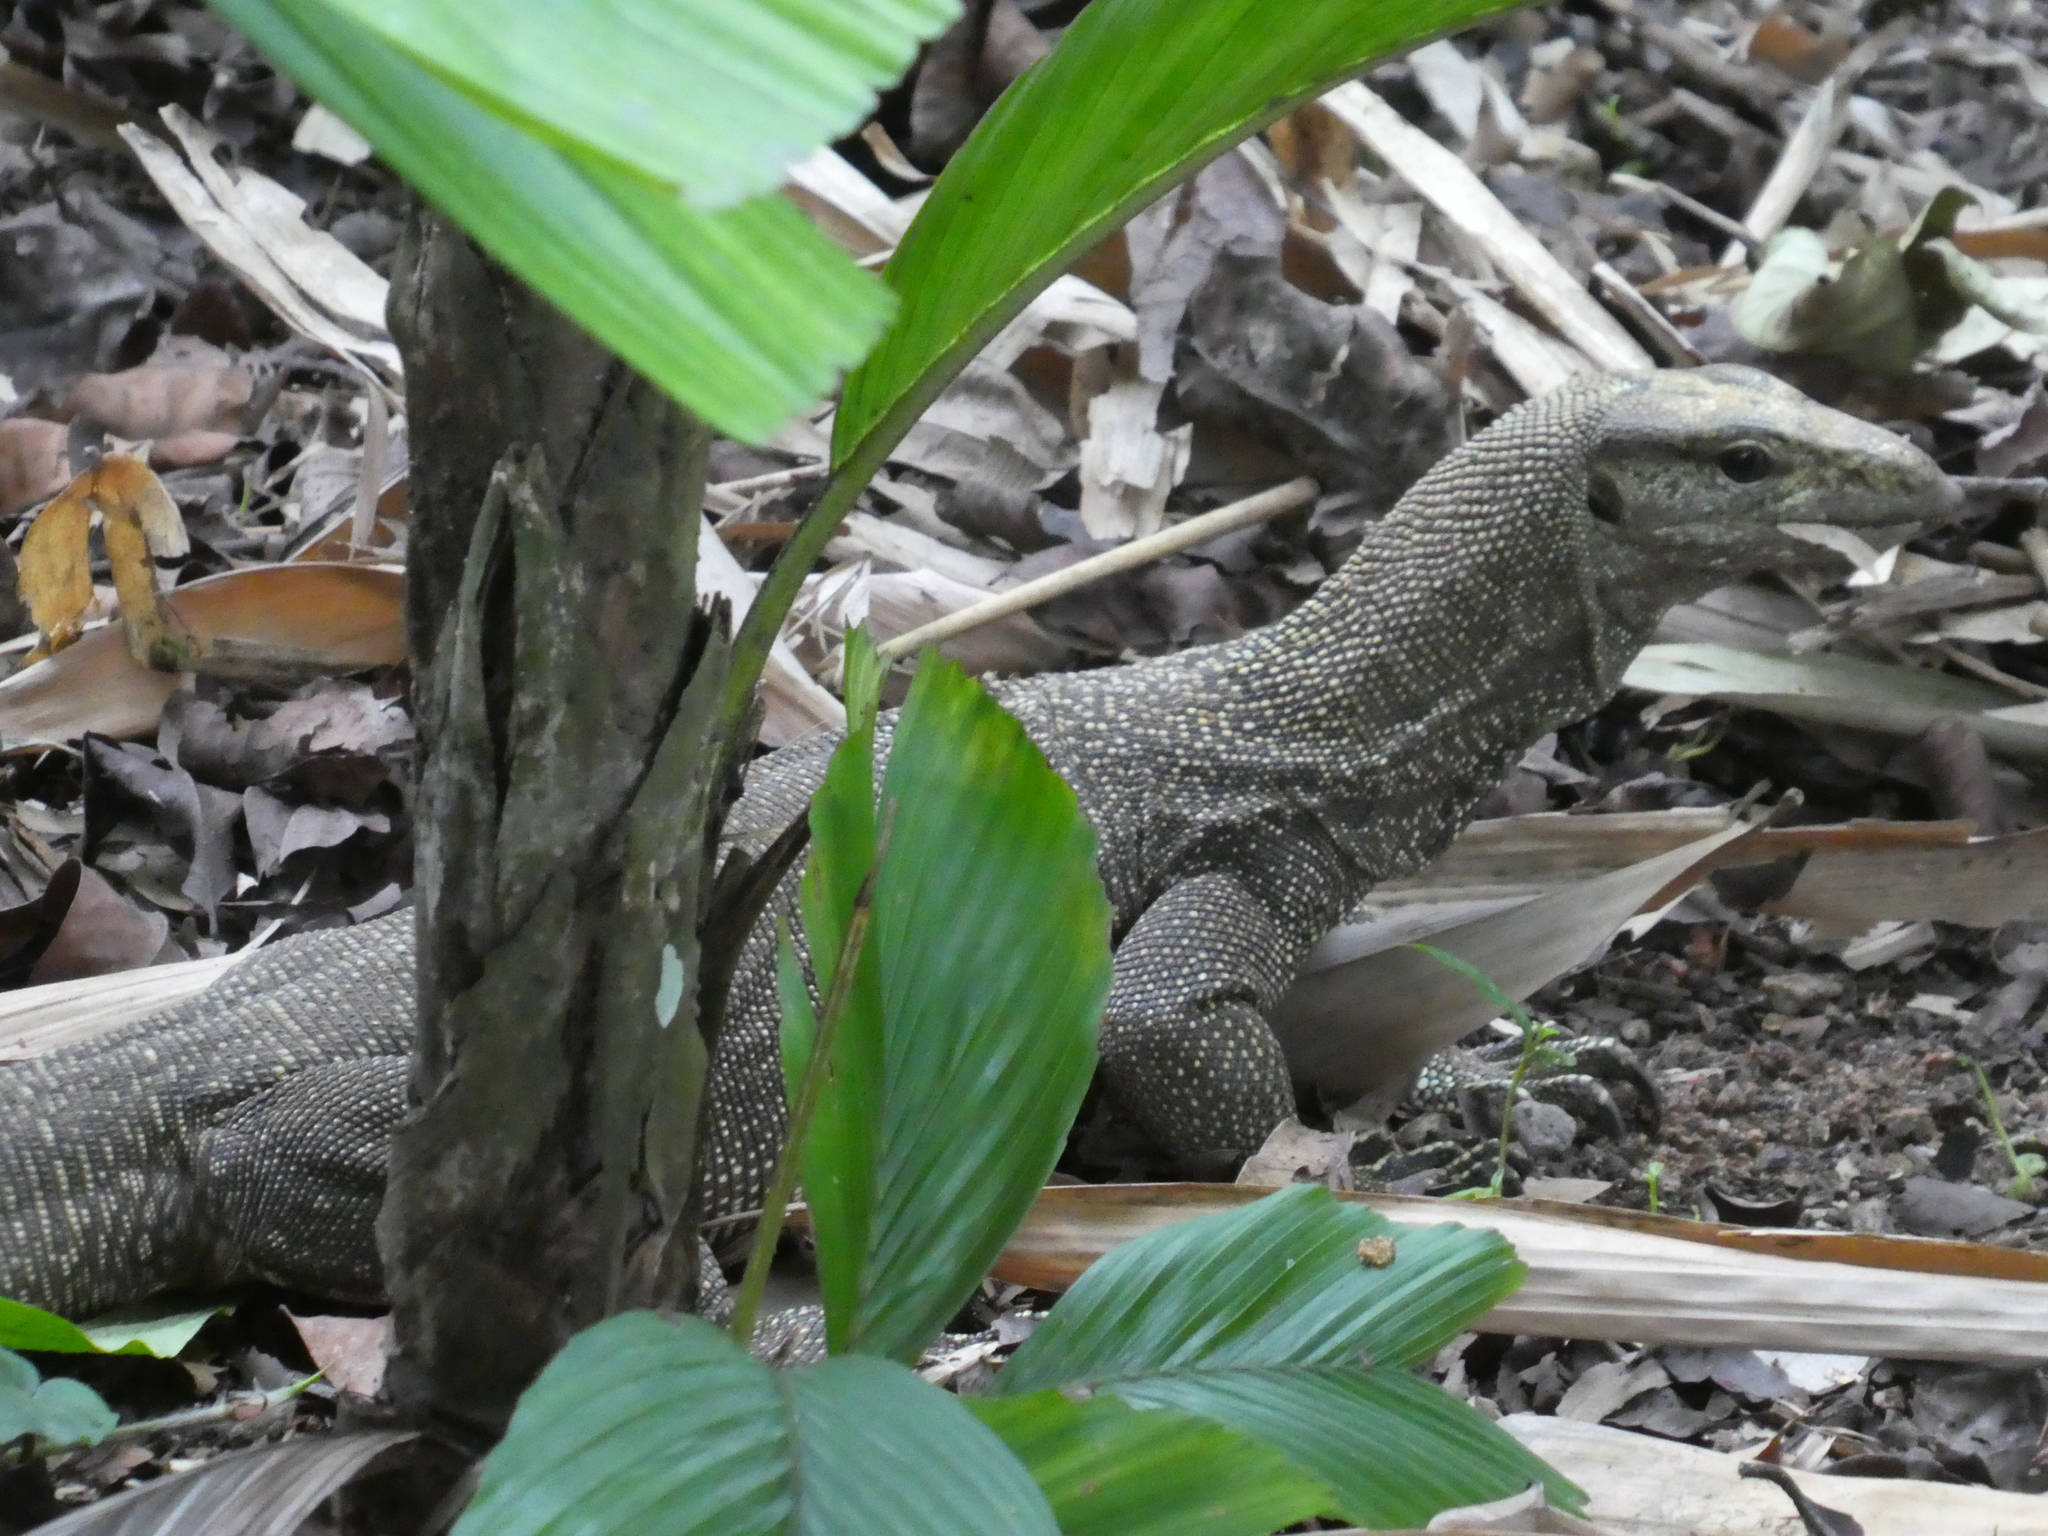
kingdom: Animalia
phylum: Chordata
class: Squamata
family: Varanidae
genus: Varanus
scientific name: Varanus nebulosus
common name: Clouded monitor
